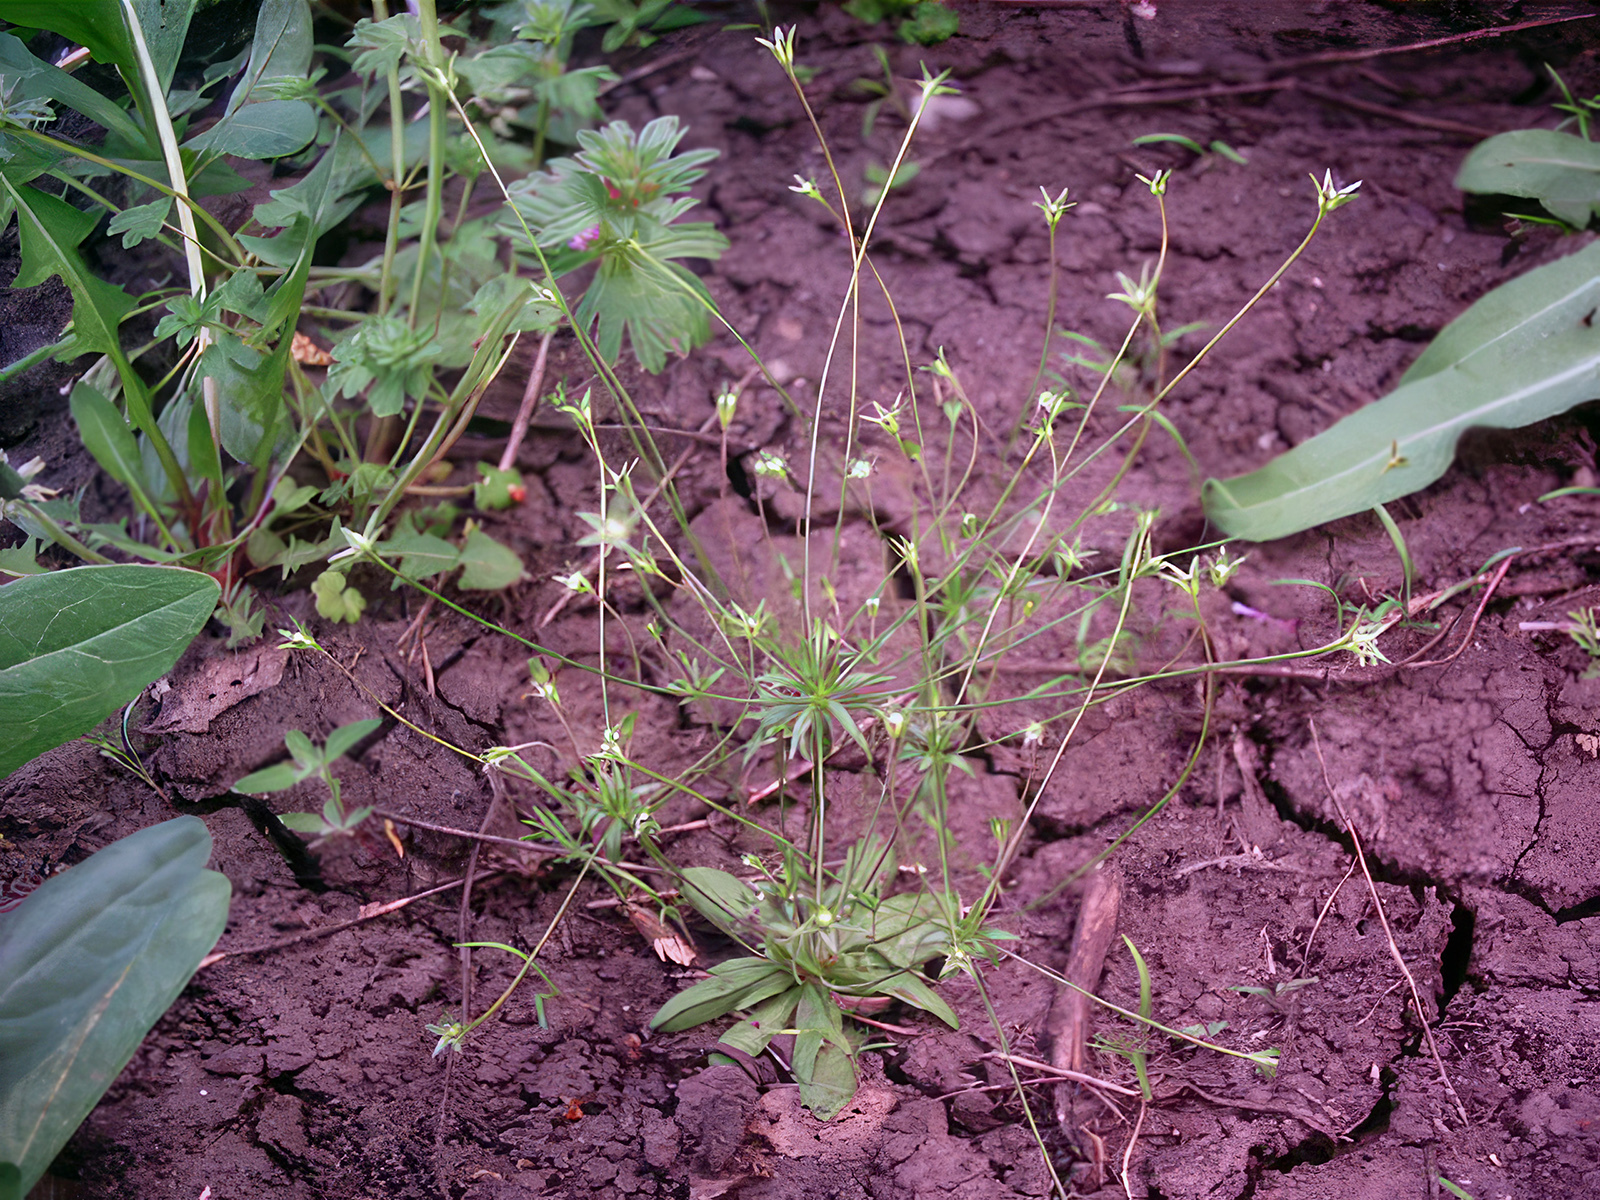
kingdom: Plantae
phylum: Tracheophyta
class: Magnoliopsida
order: Ericales
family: Primulaceae
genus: Androsace
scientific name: Androsace elongata
